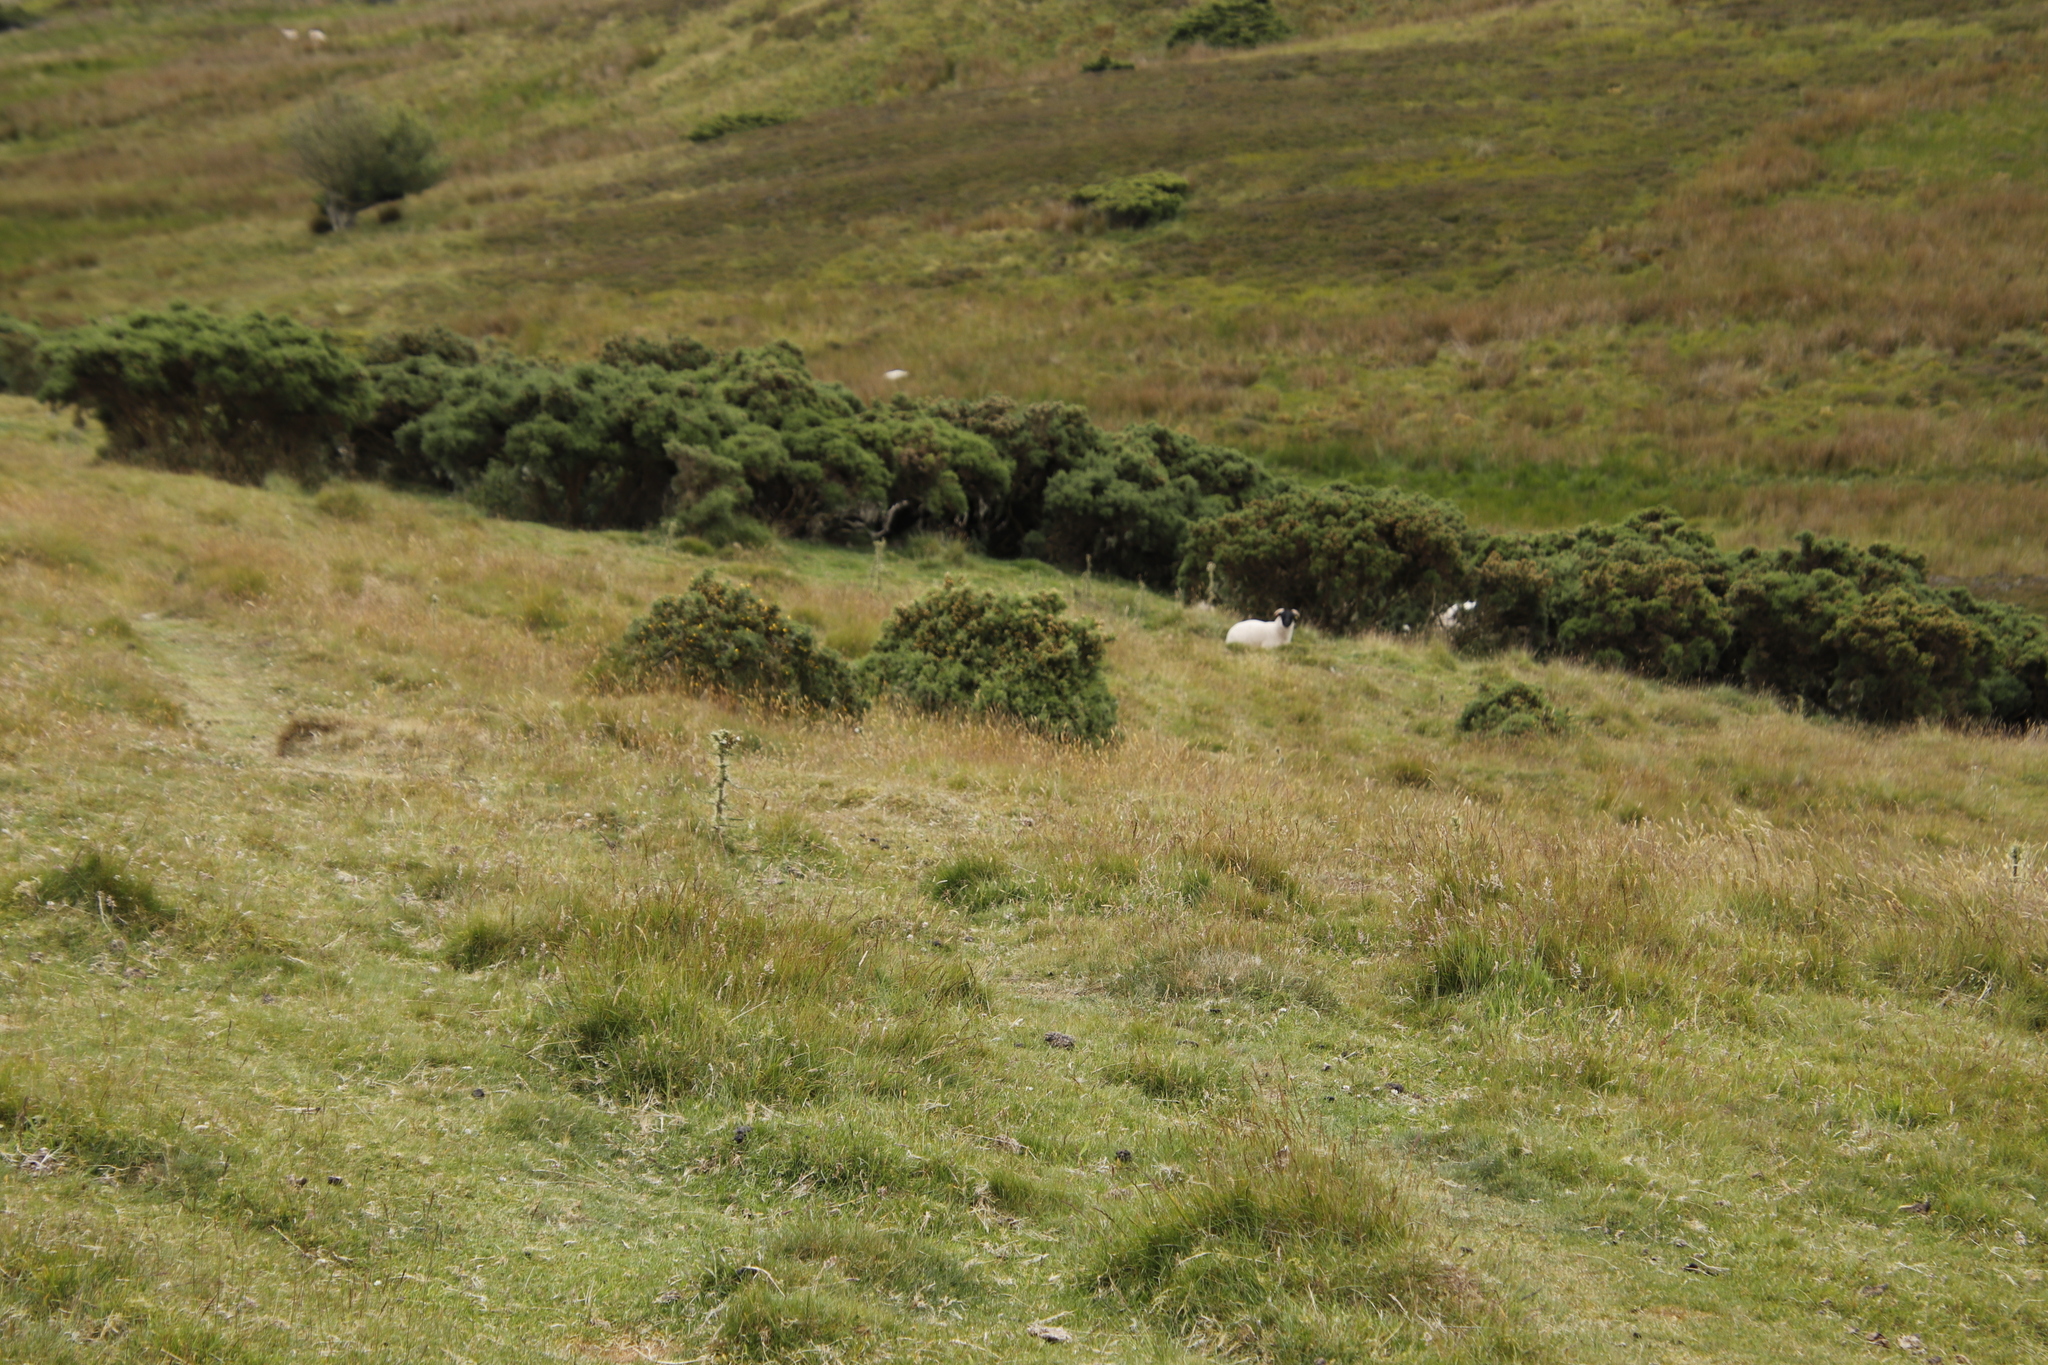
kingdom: Plantae
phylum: Tracheophyta
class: Magnoliopsida
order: Fabales
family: Fabaceae
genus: Ulex
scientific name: Ulex europaeus
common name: Common gorse
